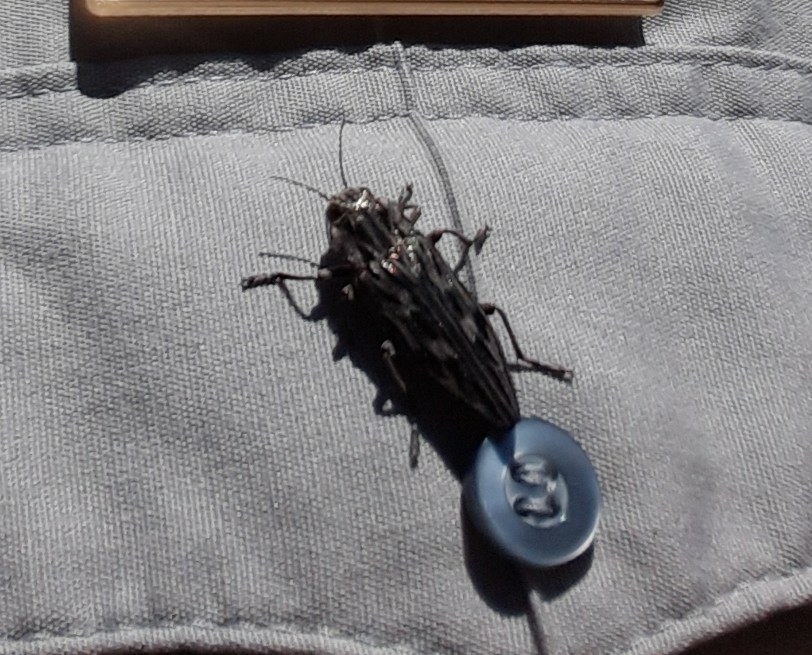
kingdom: Animalia
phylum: Arthropoda
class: Insecta
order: Coleoptera
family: Buprestidae
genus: Chalcophora
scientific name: Chalcophora angulicollis
